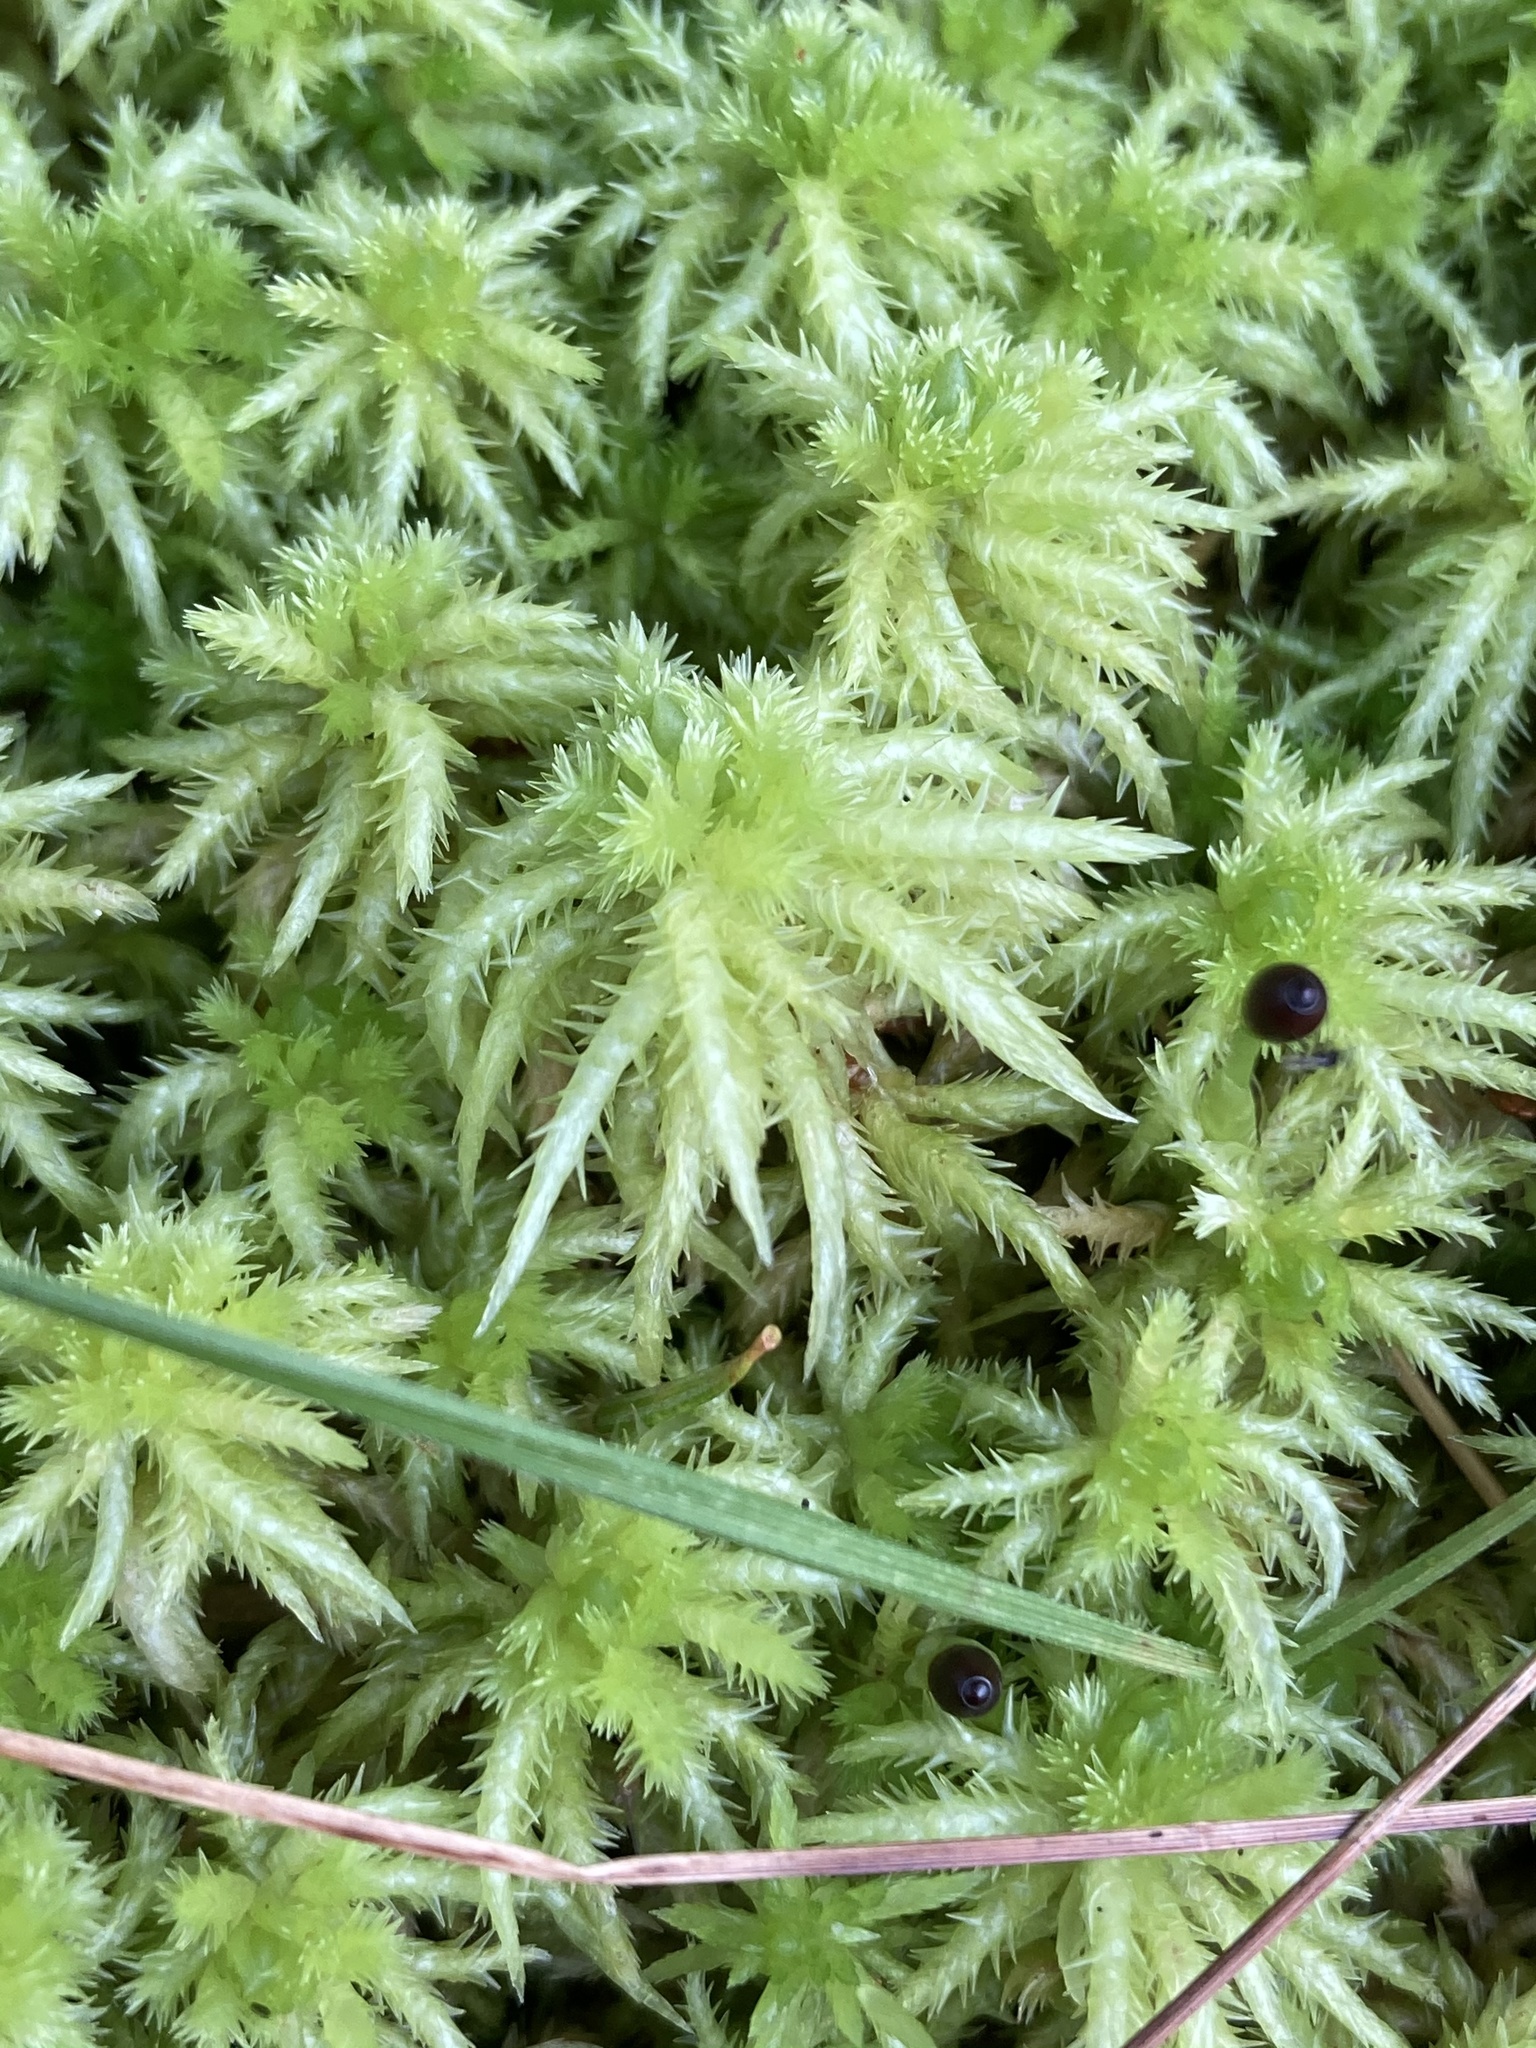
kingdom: Plantae
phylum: Bryophyta
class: Sphagnopsida
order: Sphagnales
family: Sphagnaceae
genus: Sphagnum
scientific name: Sphagnum squarrosum
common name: Shaggy peat moss
